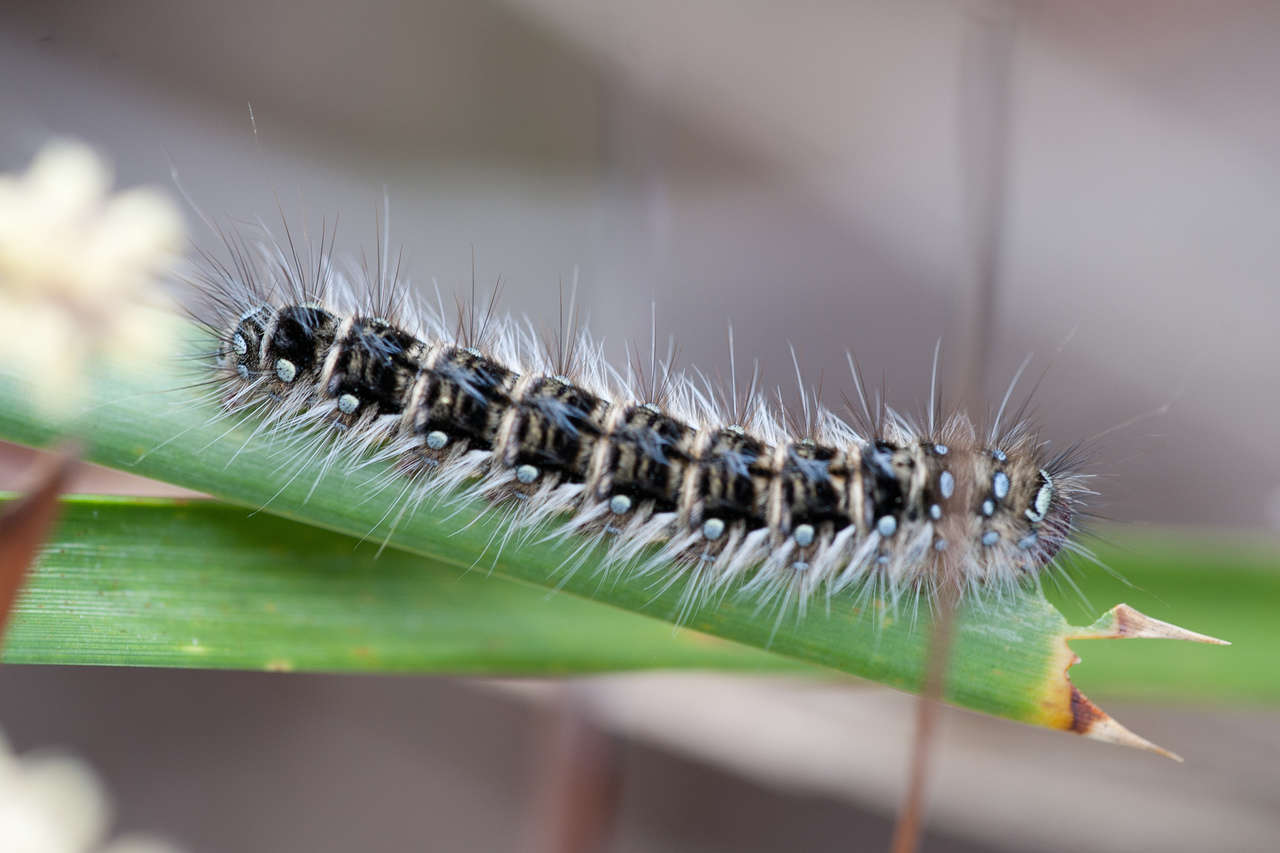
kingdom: Plantae
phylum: Tracheophyta
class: Liliopsida
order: Asparagales
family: Asparagaceae
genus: Lomandra
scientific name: Lomandra longifolia
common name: Longleaf mat-rush
